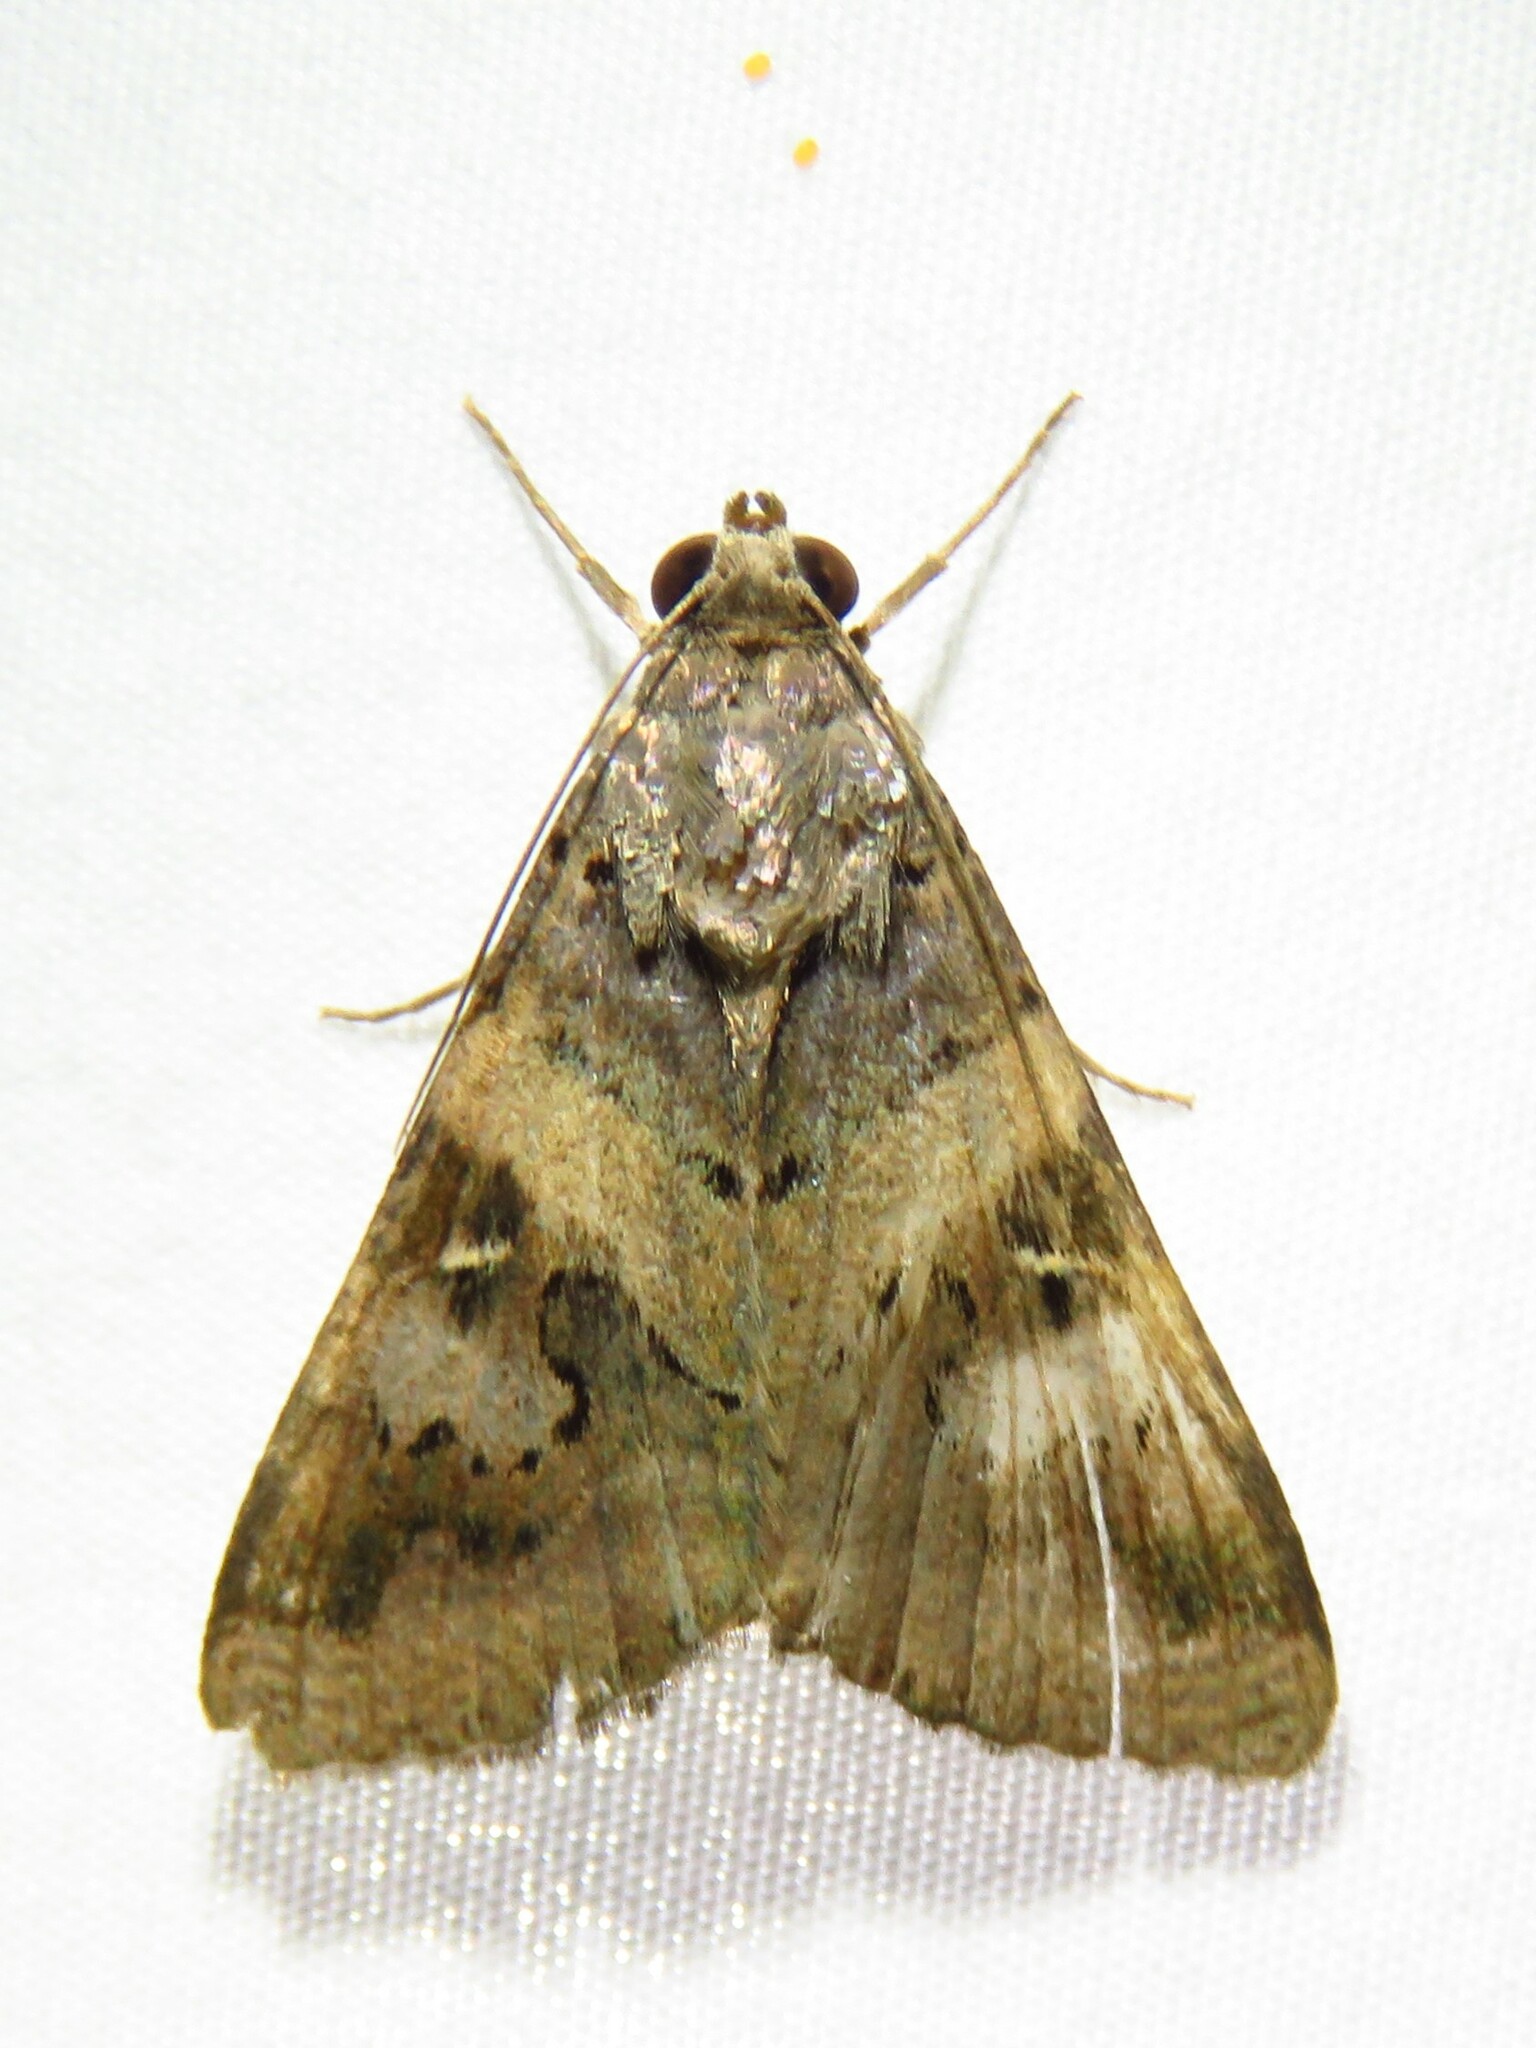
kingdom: Animalia
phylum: Arthropoda
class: Insecta
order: Lepidoptera
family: Erebidae
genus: Melipotis
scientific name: Melipotis indomita
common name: Moth
